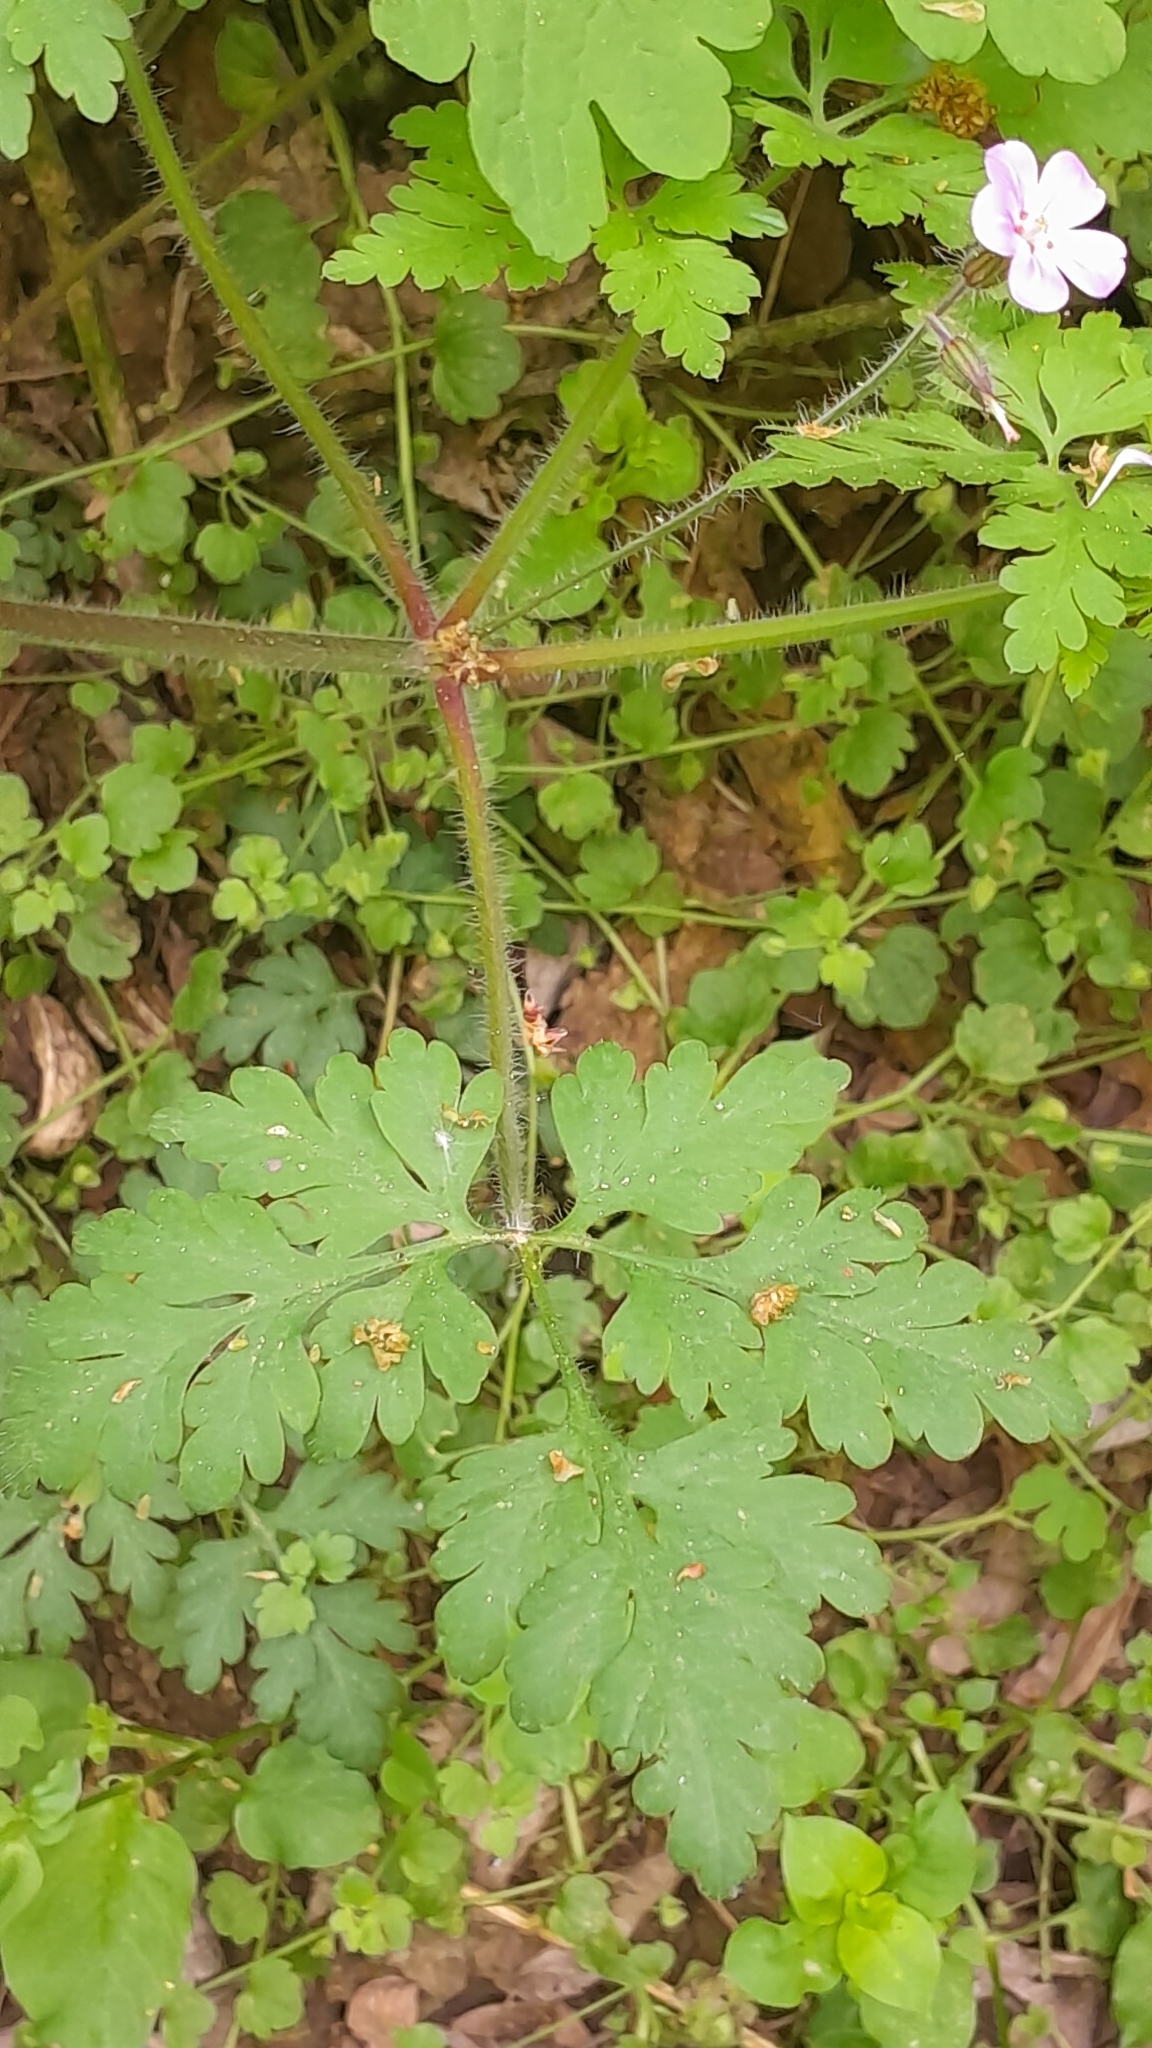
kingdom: Plantae
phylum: Tracheophyta
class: Magnoliopsida
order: Geraniales
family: Geraniaceae
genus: Geranium
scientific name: Geranium robertianum
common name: Herb-robert
